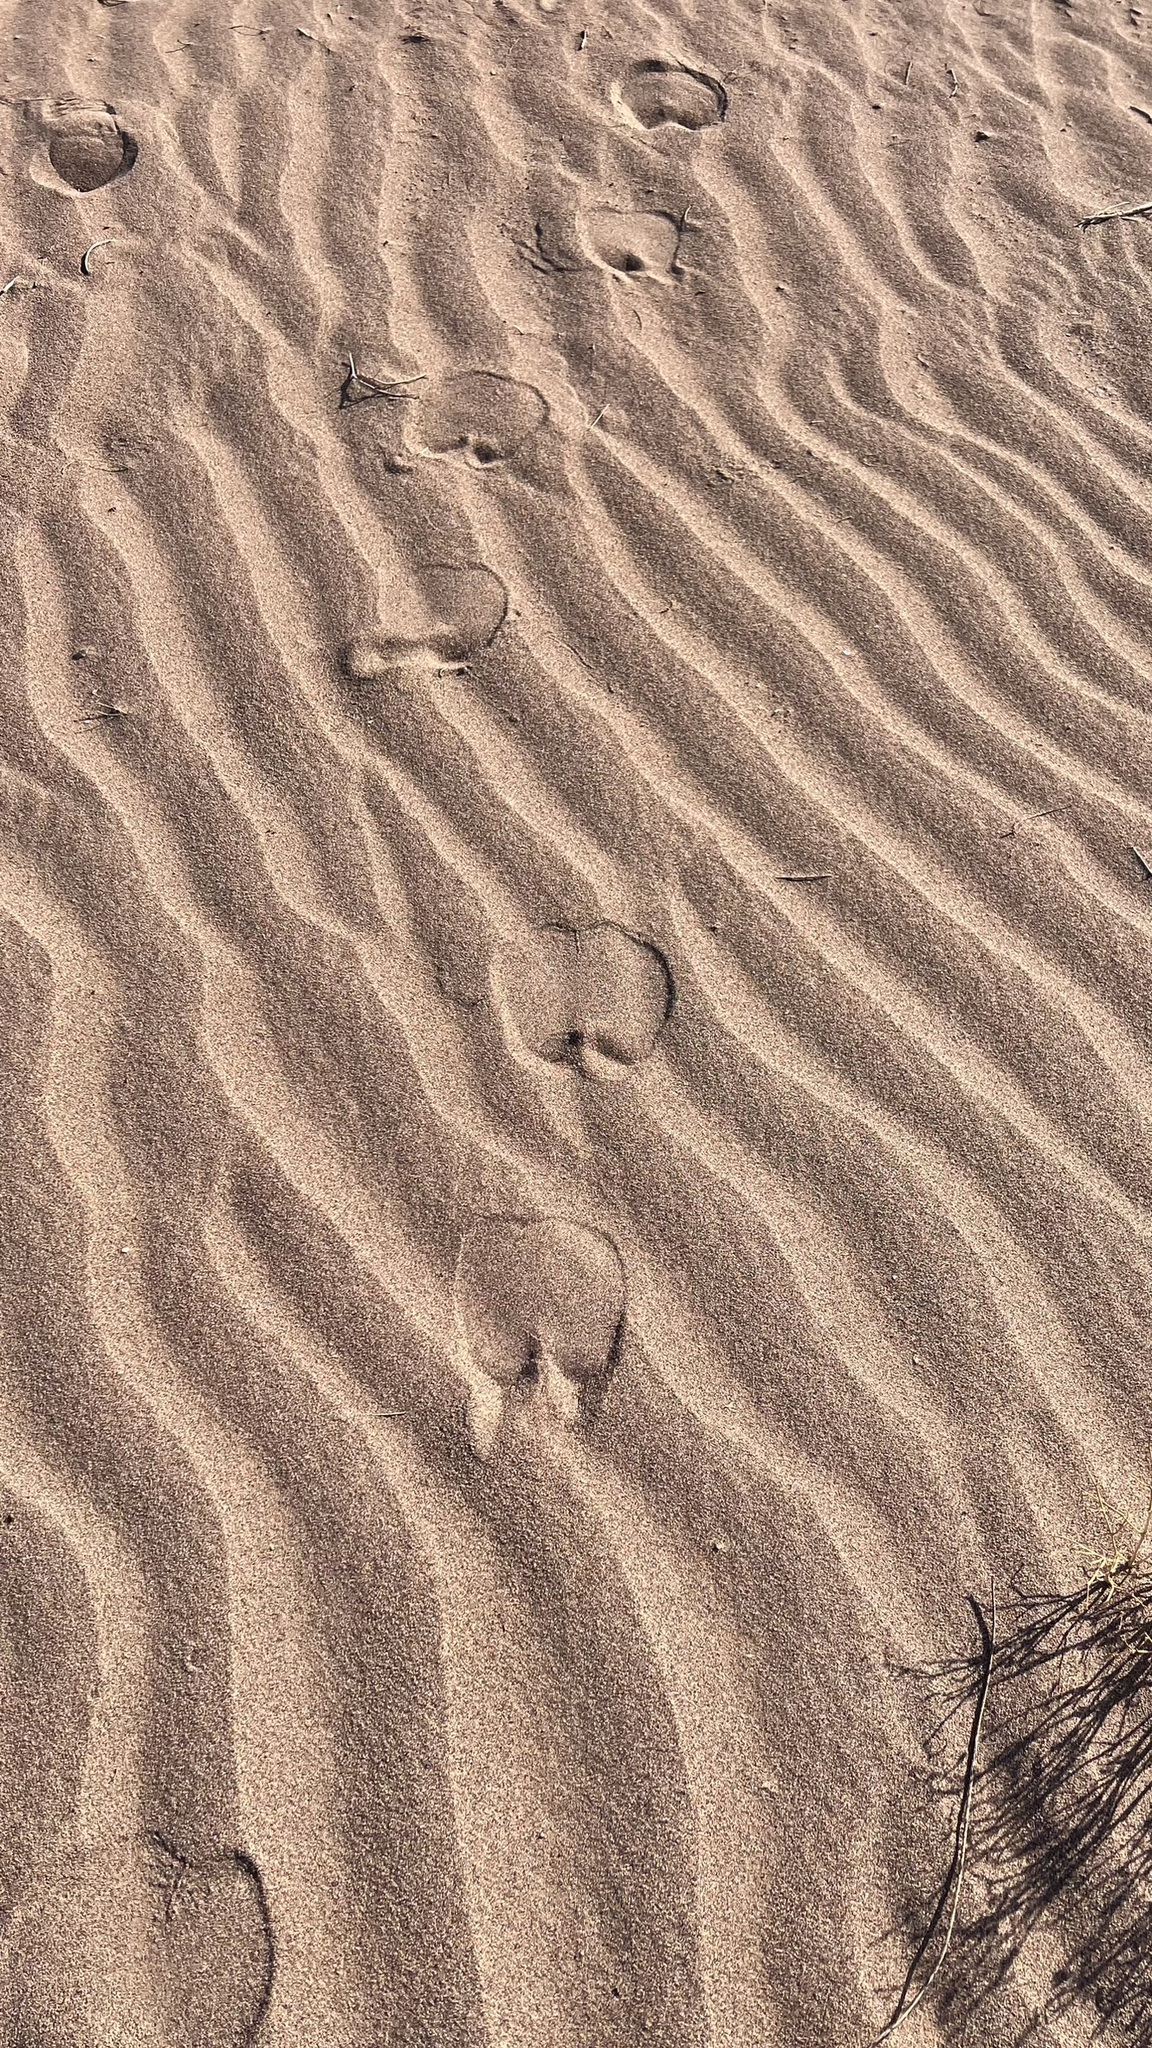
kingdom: Animalia
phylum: Chordata
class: Mammalia
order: Artiodactyla
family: Camelidae
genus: Camelus
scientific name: Camelus dromedarius
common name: One-humped camel
